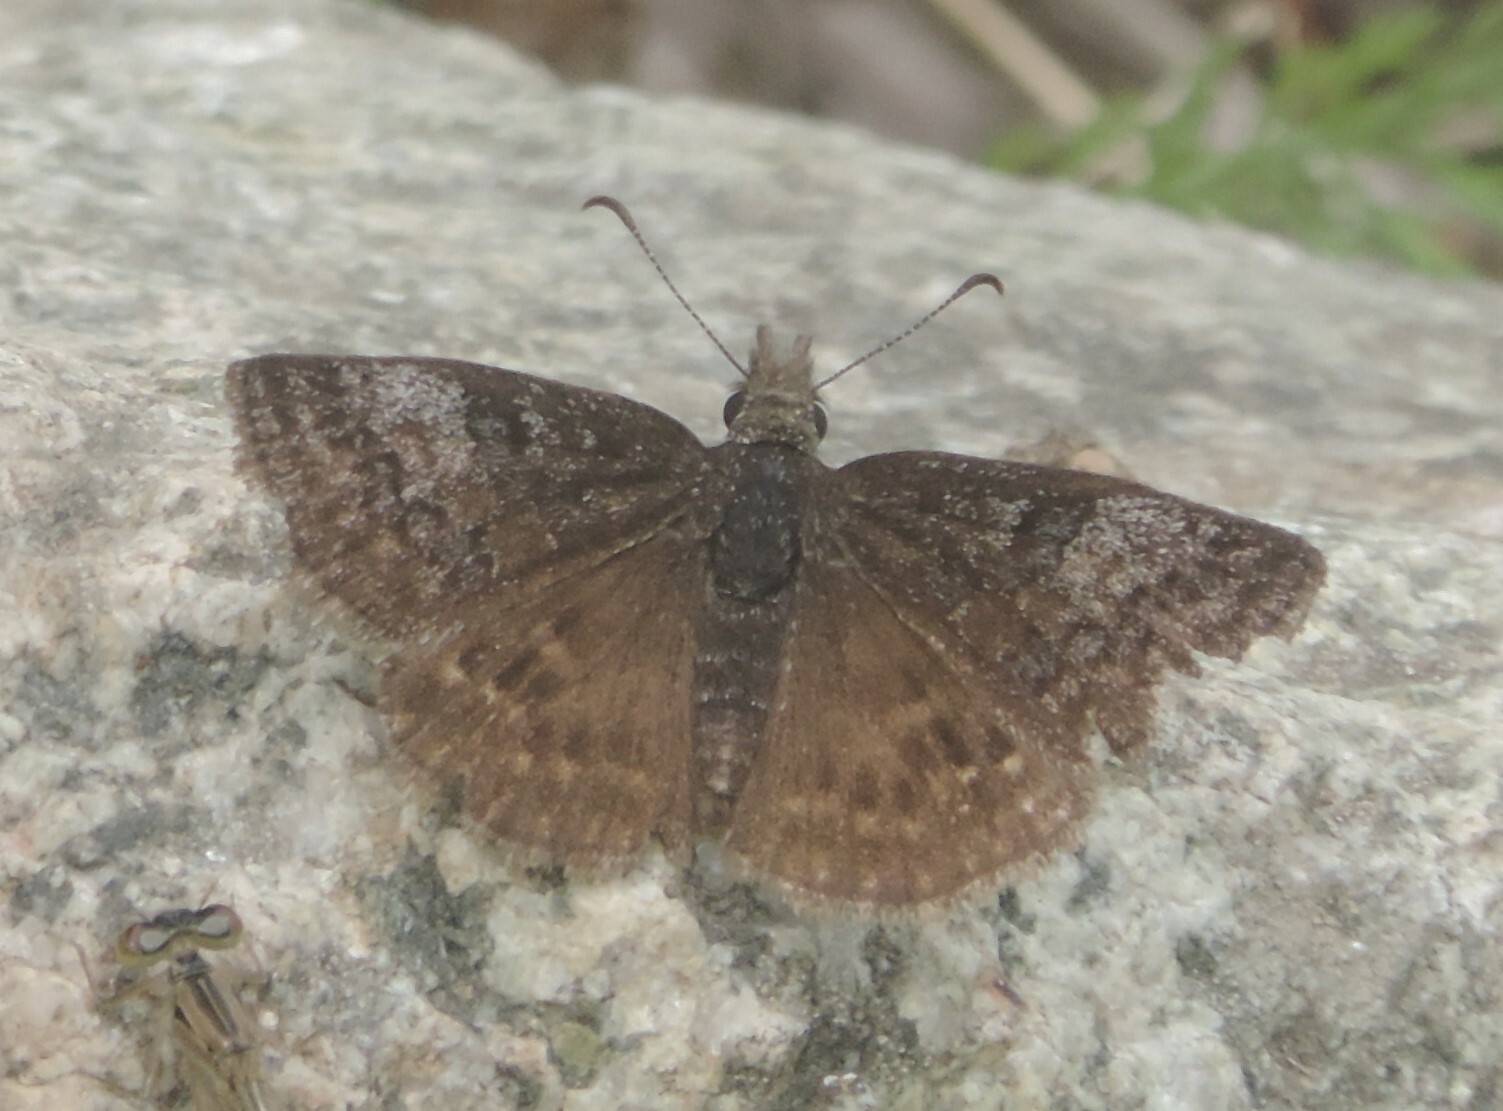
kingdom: Animalia
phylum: Arthropoda
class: Insecta
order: Lepidoptera
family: Hesperiidae
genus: Erynnis
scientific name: Erynnis icelus
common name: Dreamy duskywing
